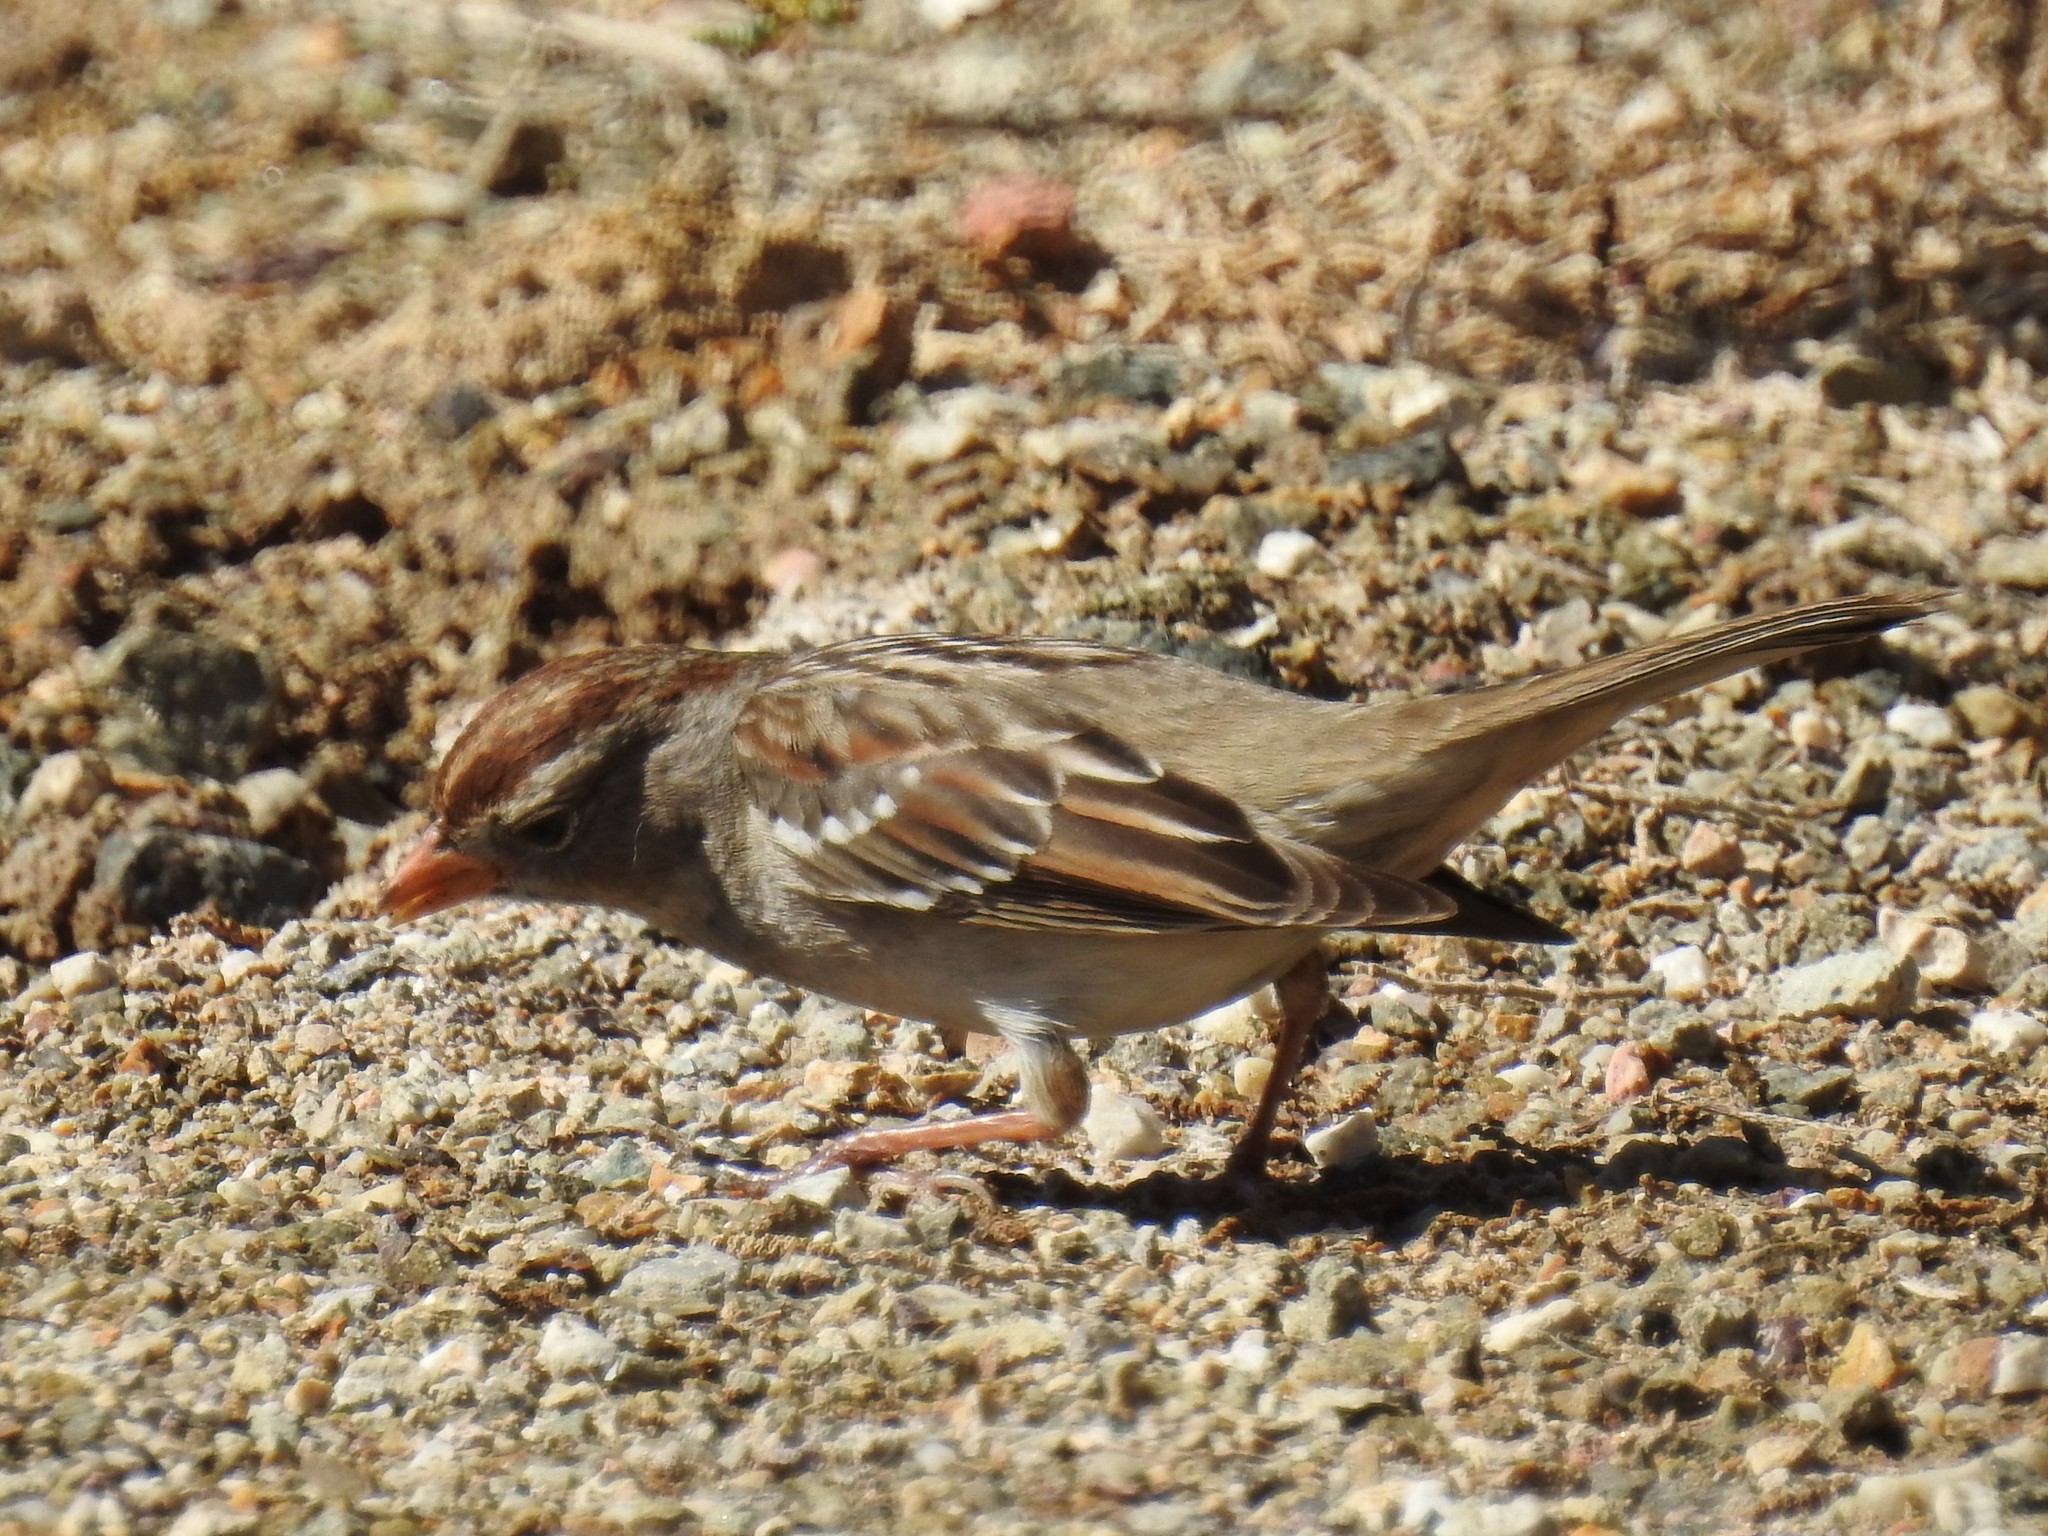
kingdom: Animalia
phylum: Chordata
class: Aves
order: Passeriformes
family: Passerellidae
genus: Zonotrichia
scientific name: Zonotrichia leucophrys
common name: White-crowned sparrow
